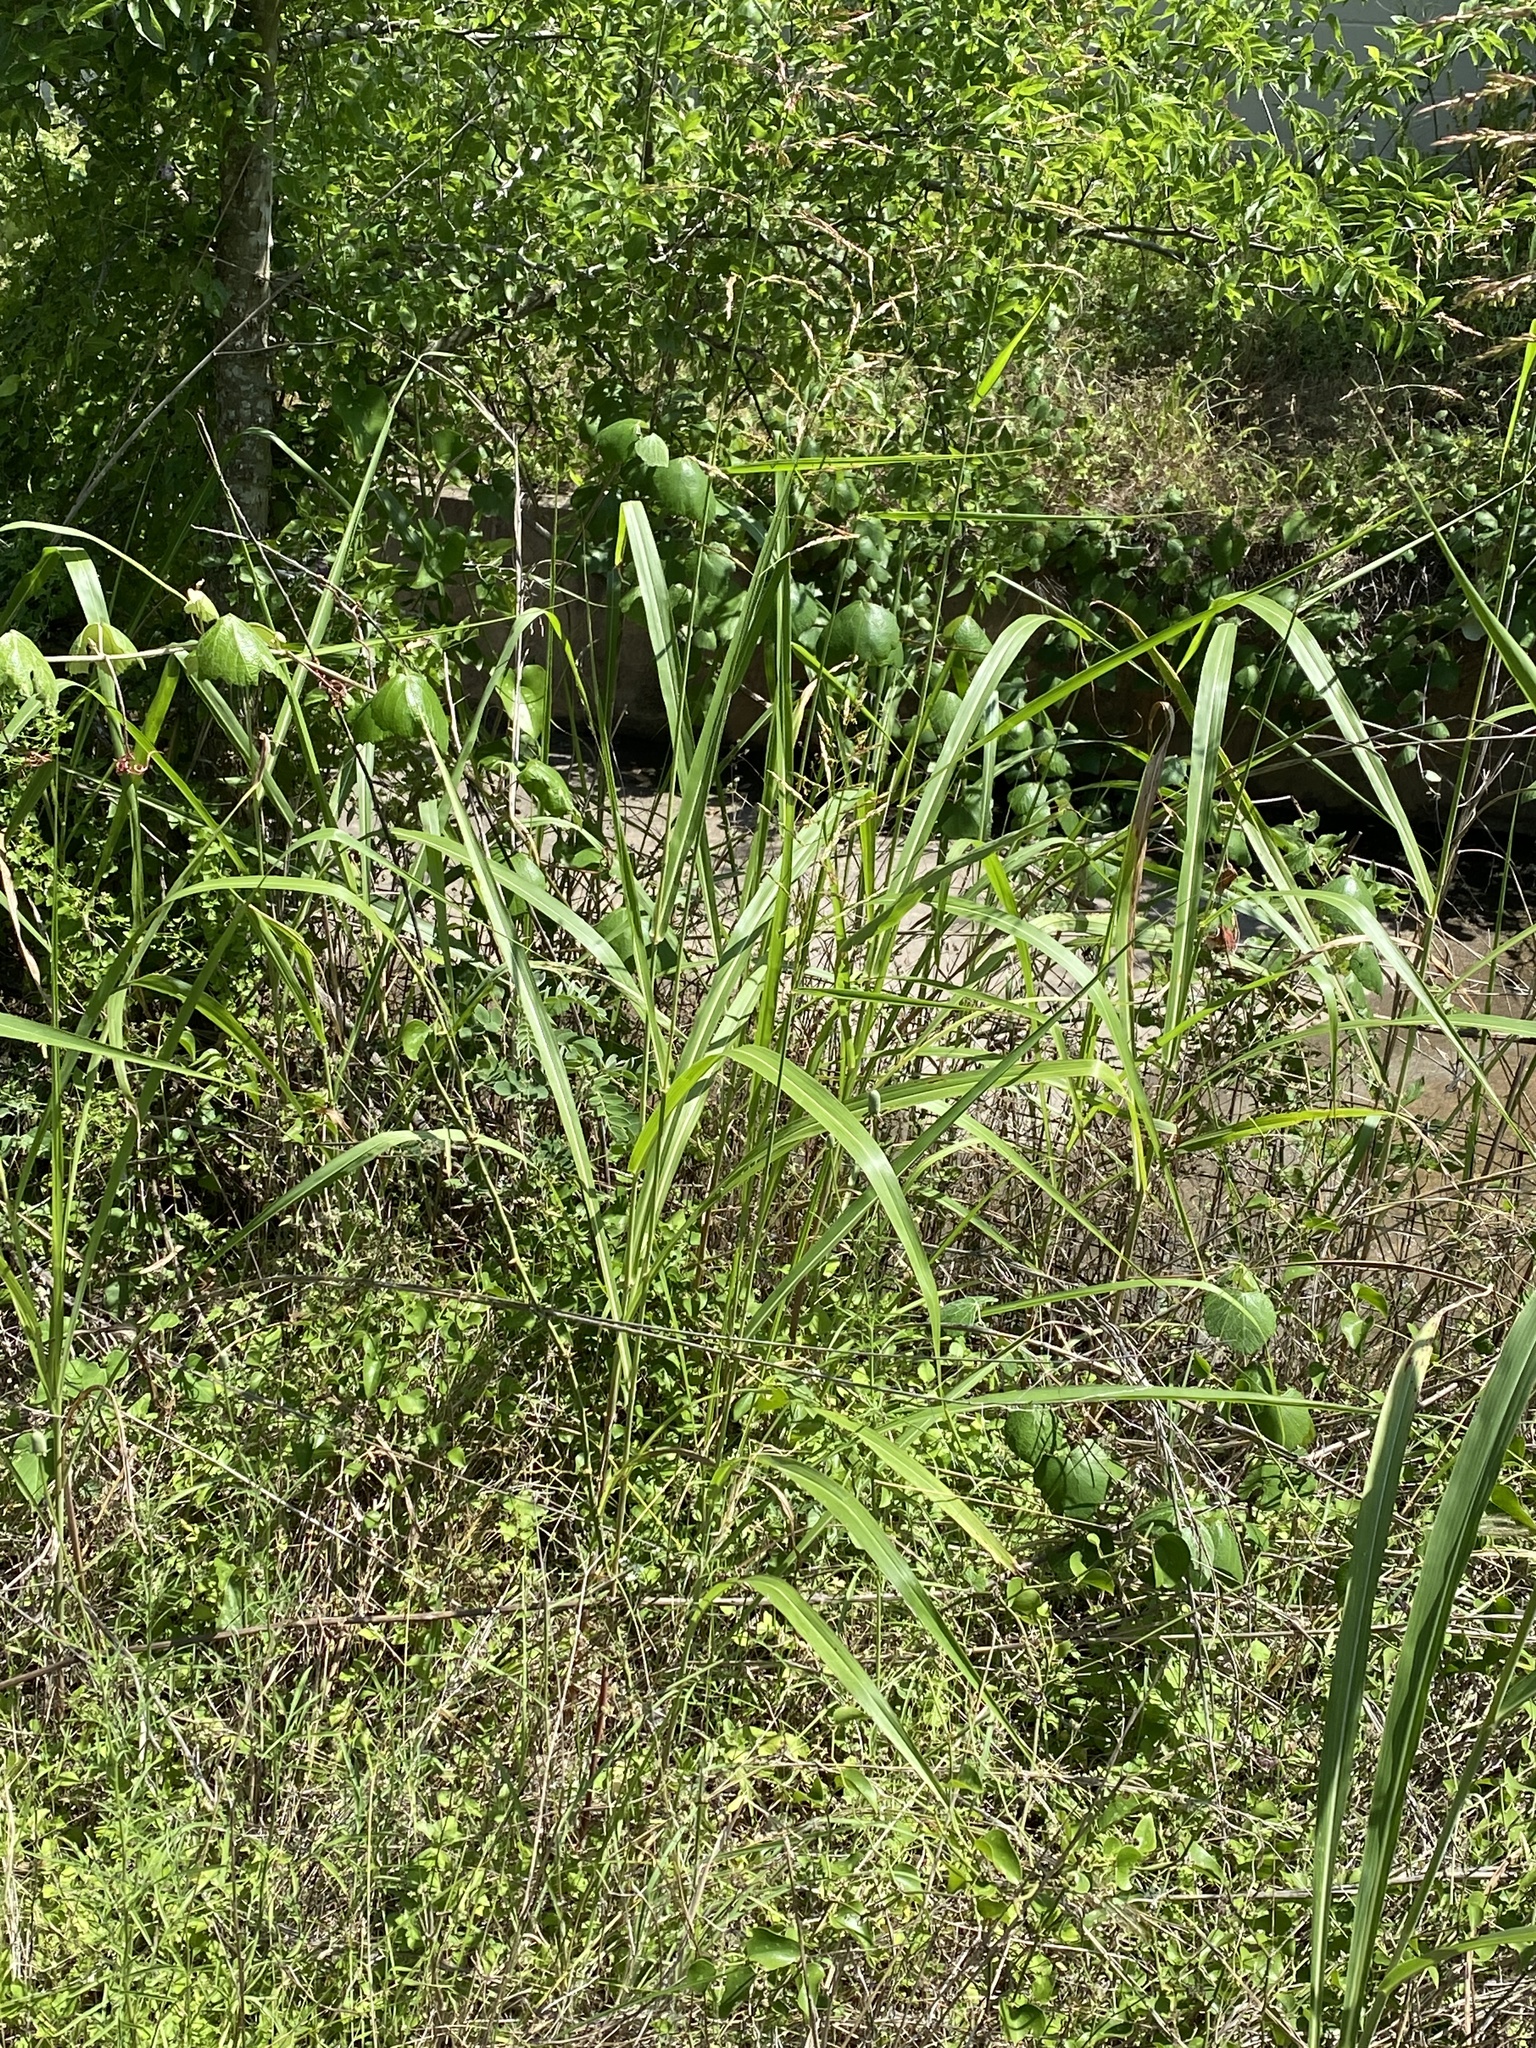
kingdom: Plantae
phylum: Tracheophyta
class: Liliopsida
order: Poales
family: Poaceae
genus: Sorghum
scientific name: Sorghum halepense
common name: Johnson-grass
